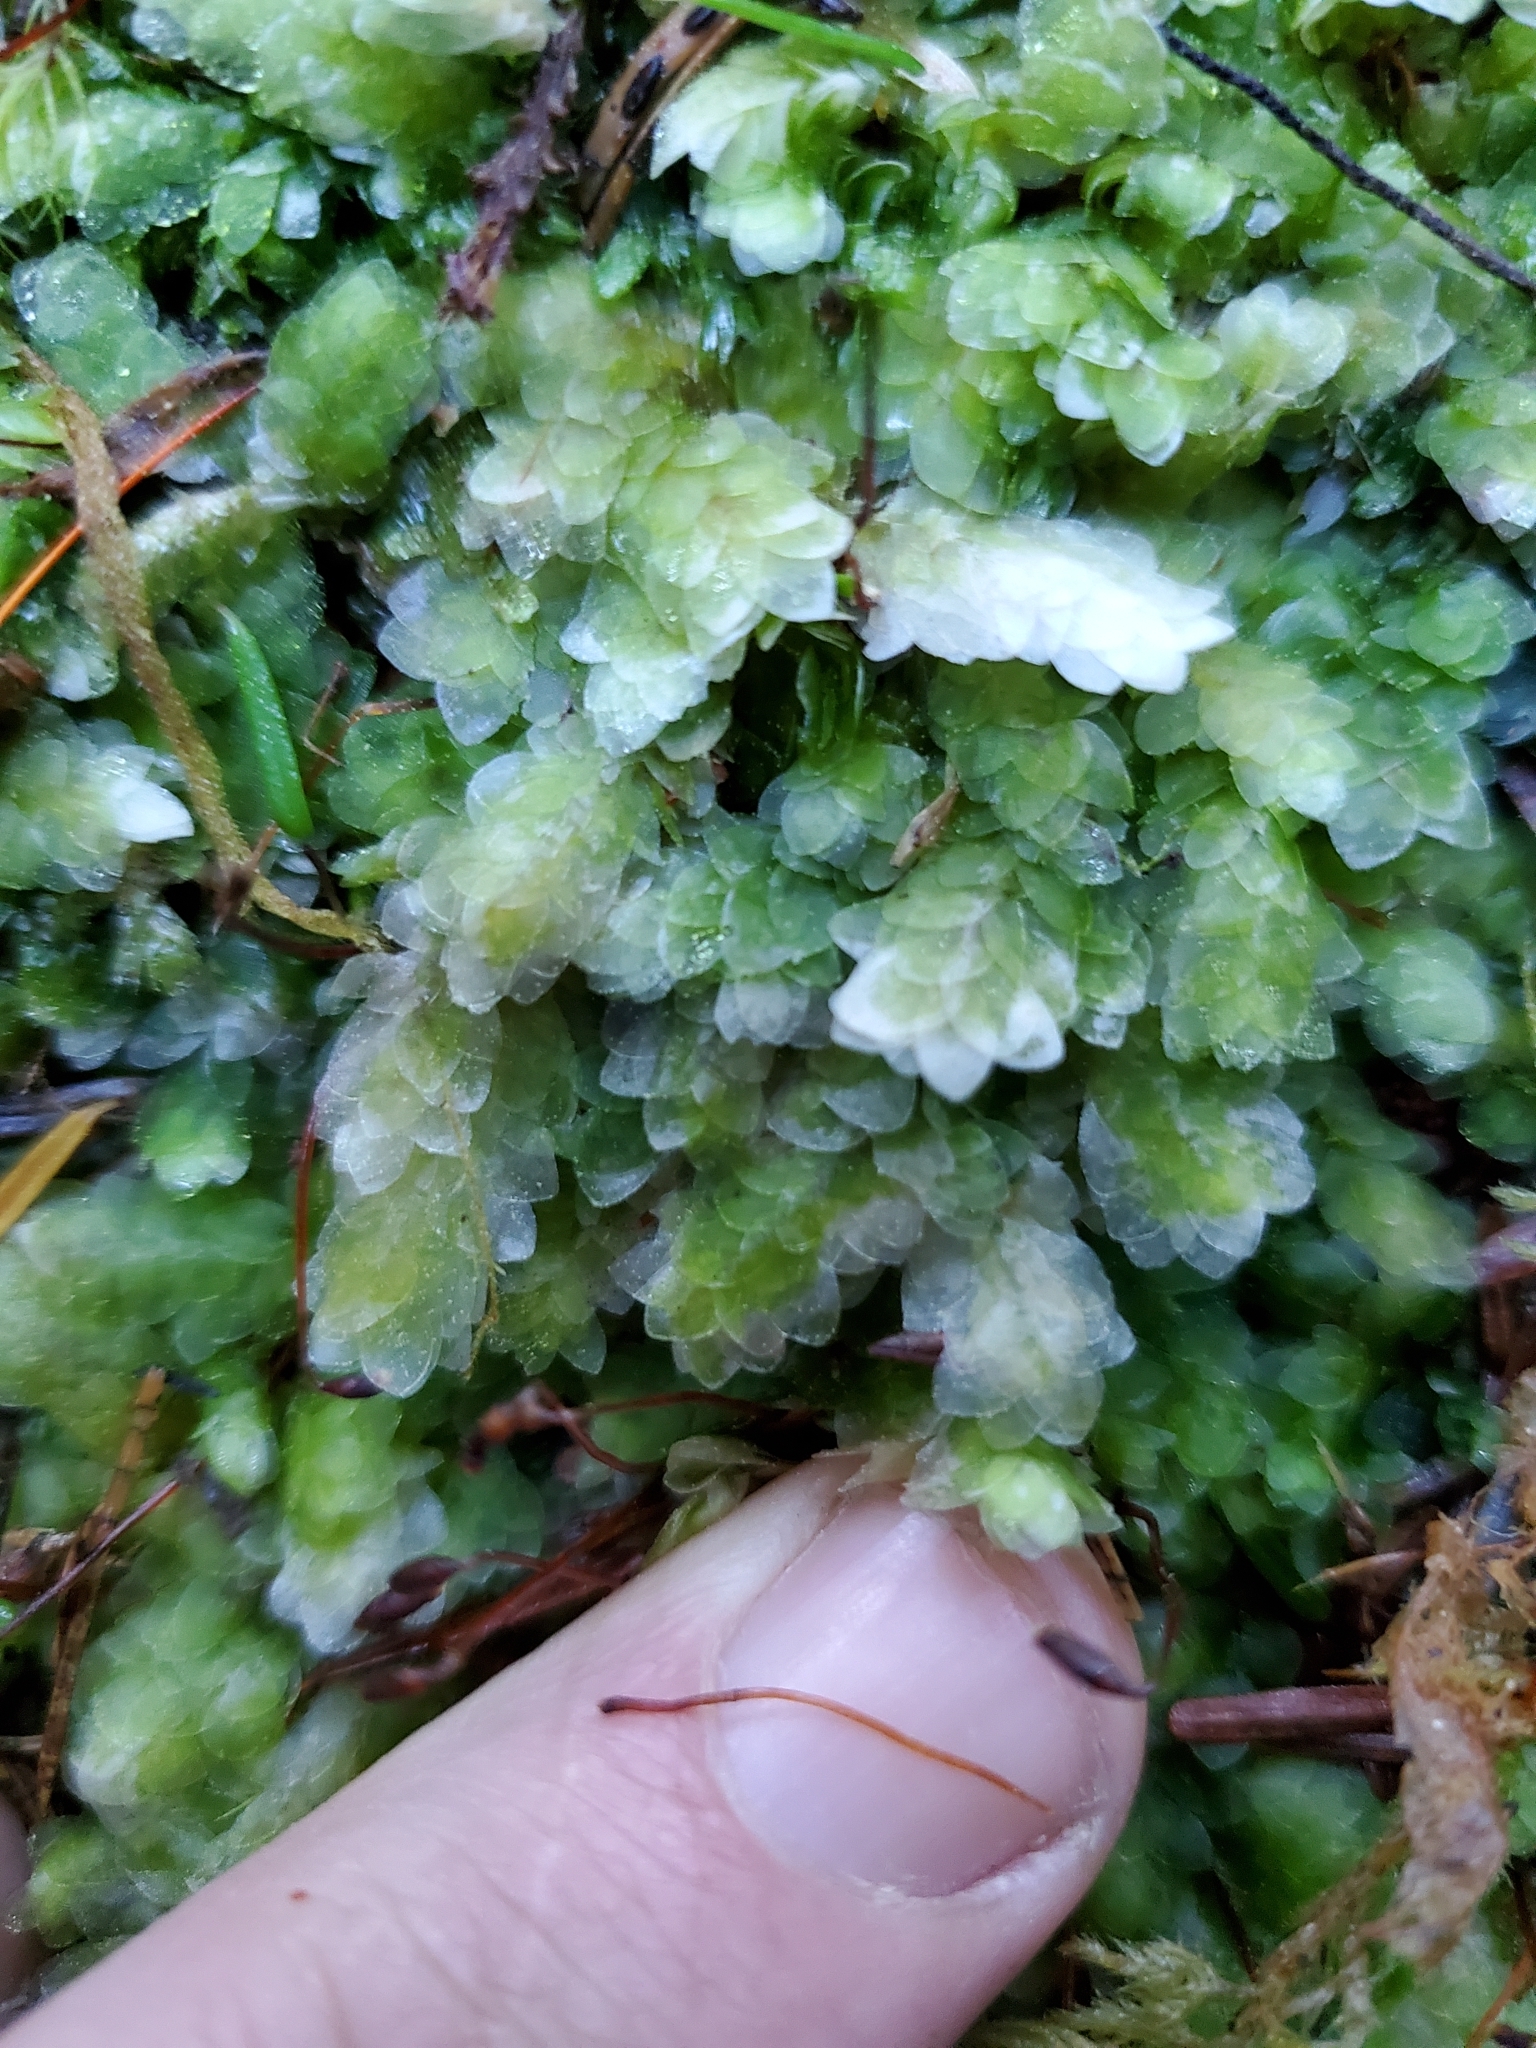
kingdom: Plantae
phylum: Bryophyta
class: Bryopsida
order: Hookeriales
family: Hookeriaceae
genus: Hookeria
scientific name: Hookeria lucens
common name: Shining hookeria
